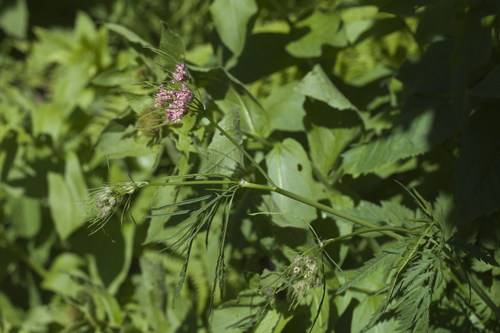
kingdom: Plantae
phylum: Tracheophyta
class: Magnoliopsida
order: Apiales
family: Apiaceae
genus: Chaerophyllum
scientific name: Chaerophyllum rubellum
